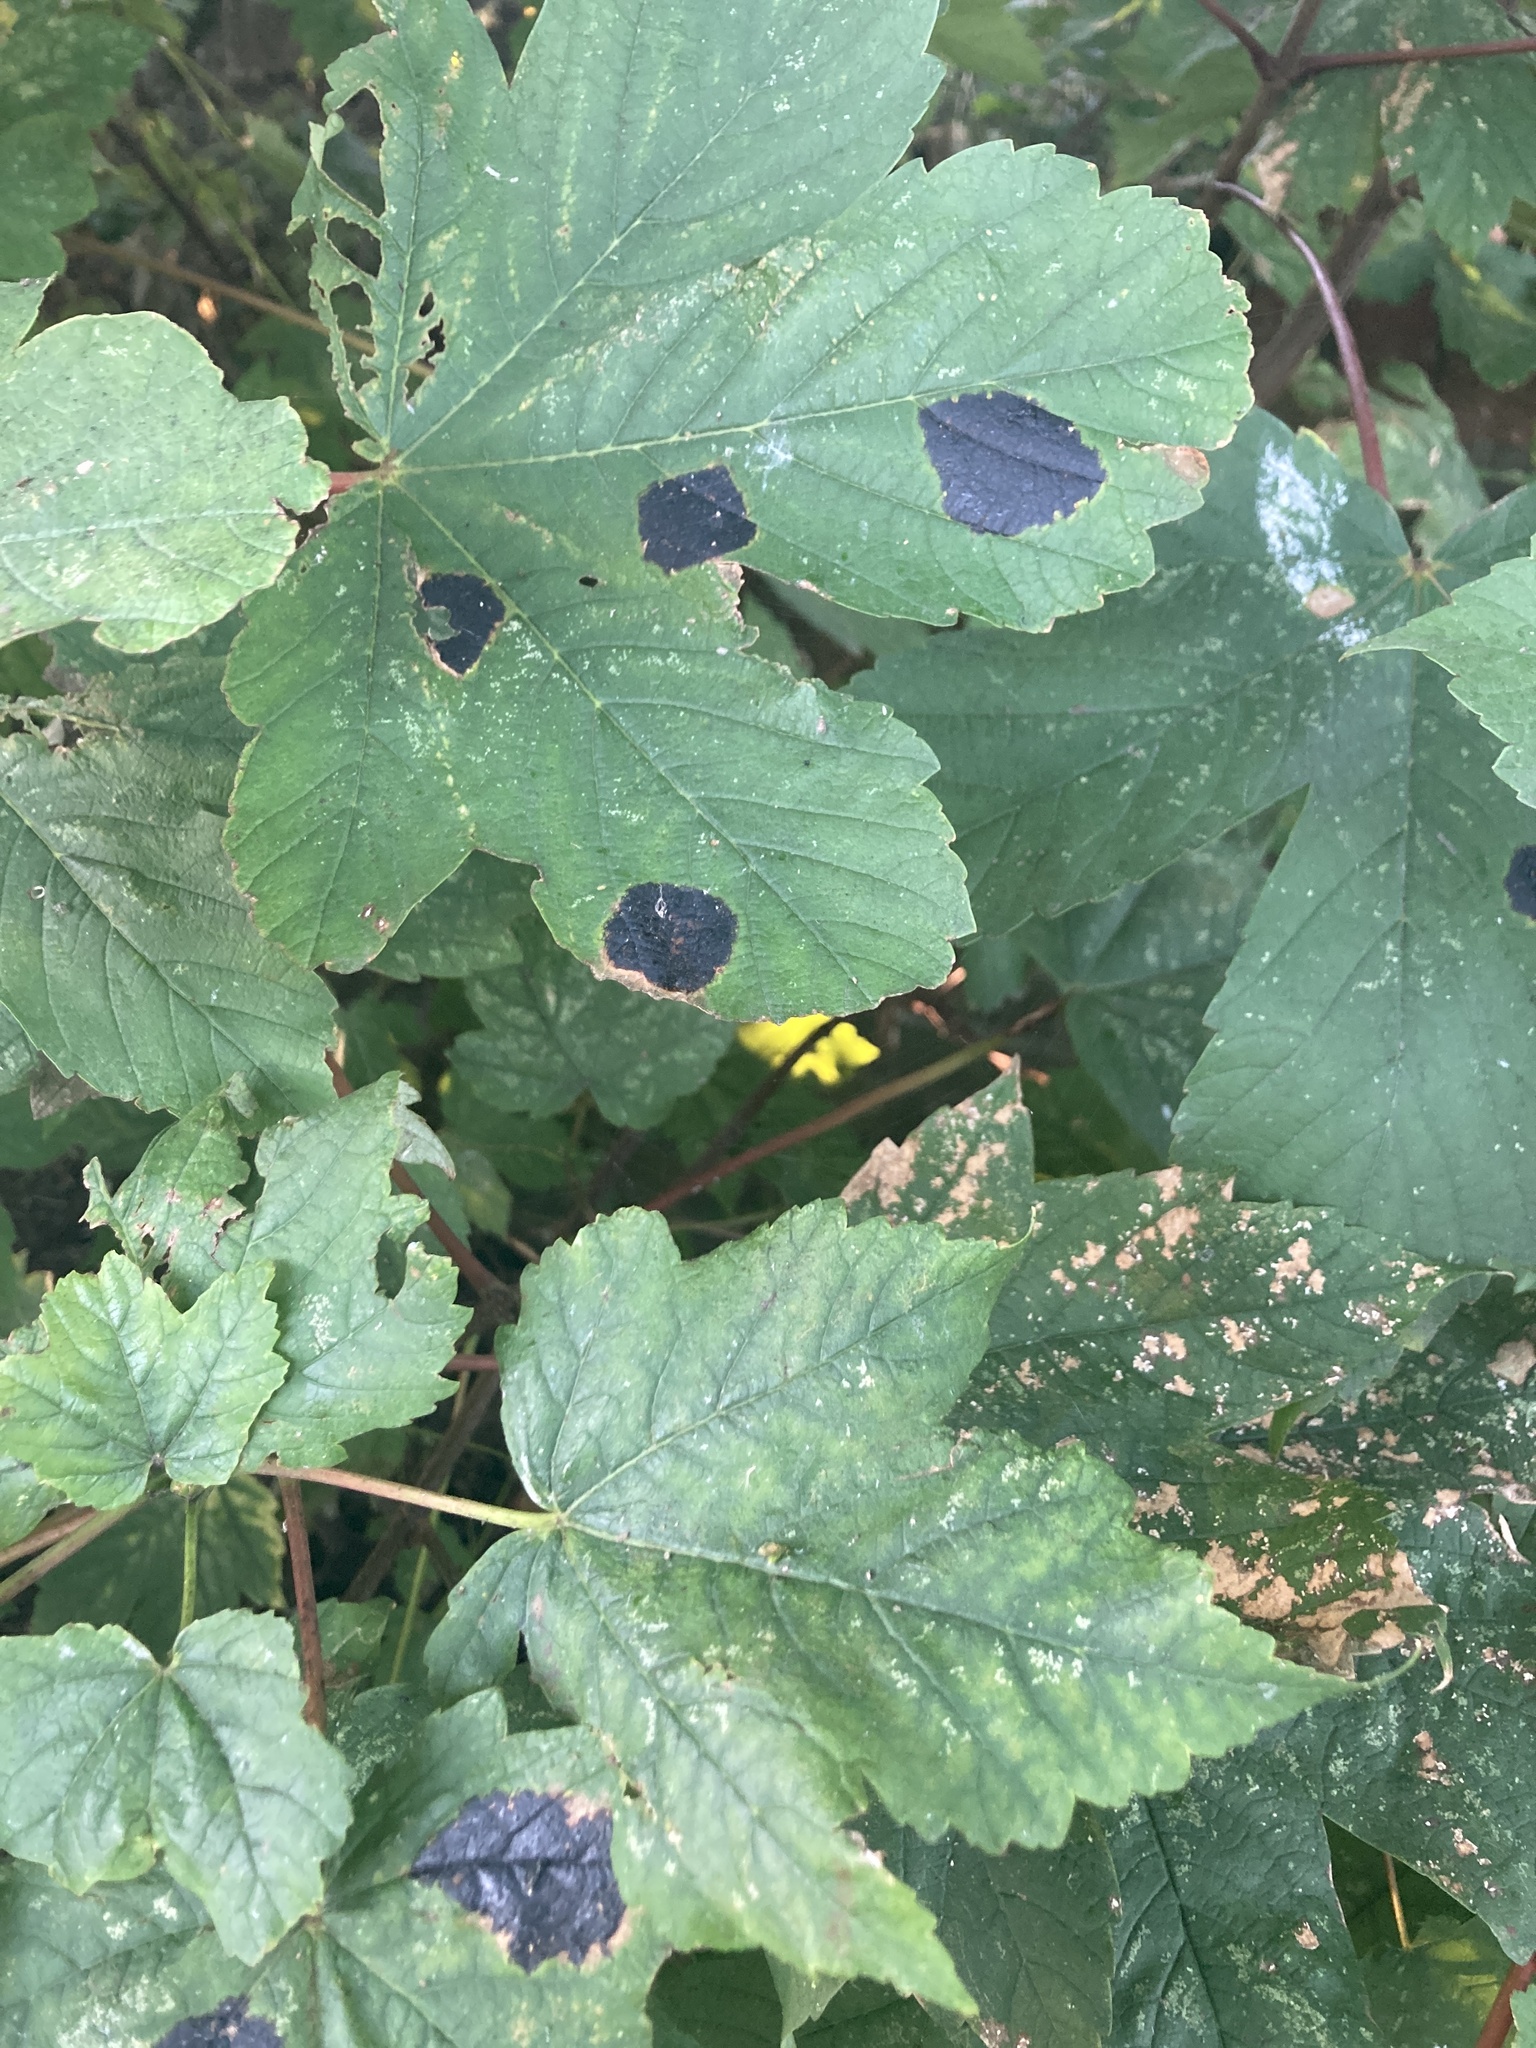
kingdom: Fungi
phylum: Ascomycota
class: Leotiomycetes
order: Rhytismatales
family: Rhytismataceae
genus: Rhytisma
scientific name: Rhytisma acerinum
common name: European tar spot
